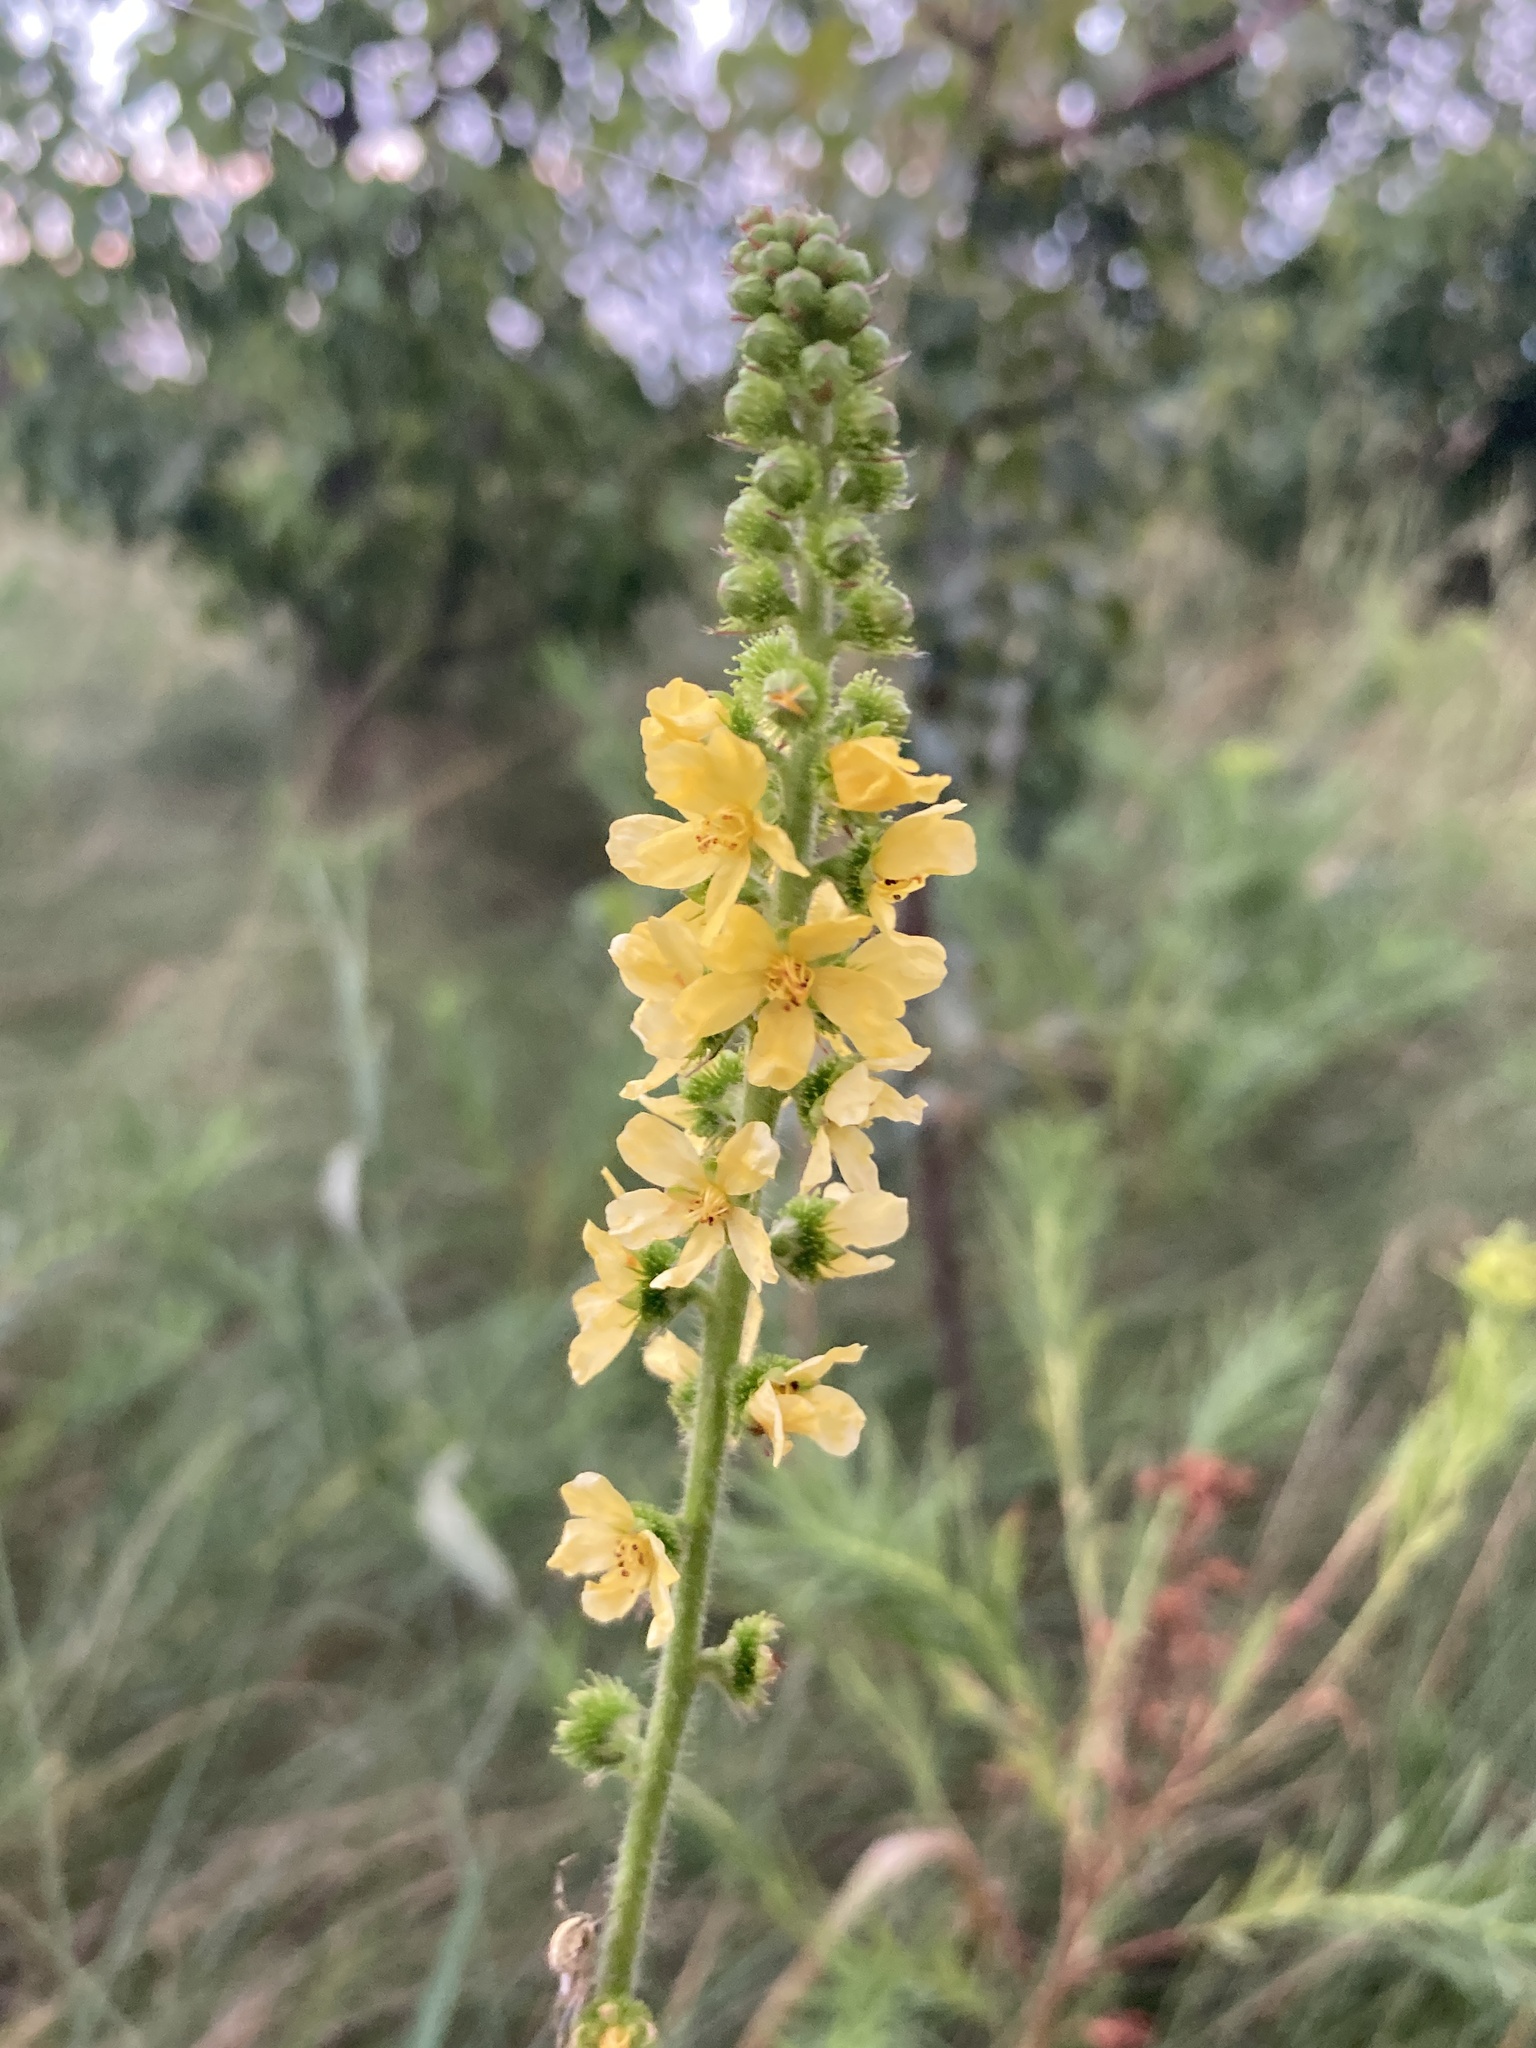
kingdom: Plantae
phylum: Tracheophyta
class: Magnoliopsida
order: Rosales
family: Rosaceae
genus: Agrimonia
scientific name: Agrimonia eupatoria
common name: Agrimony
